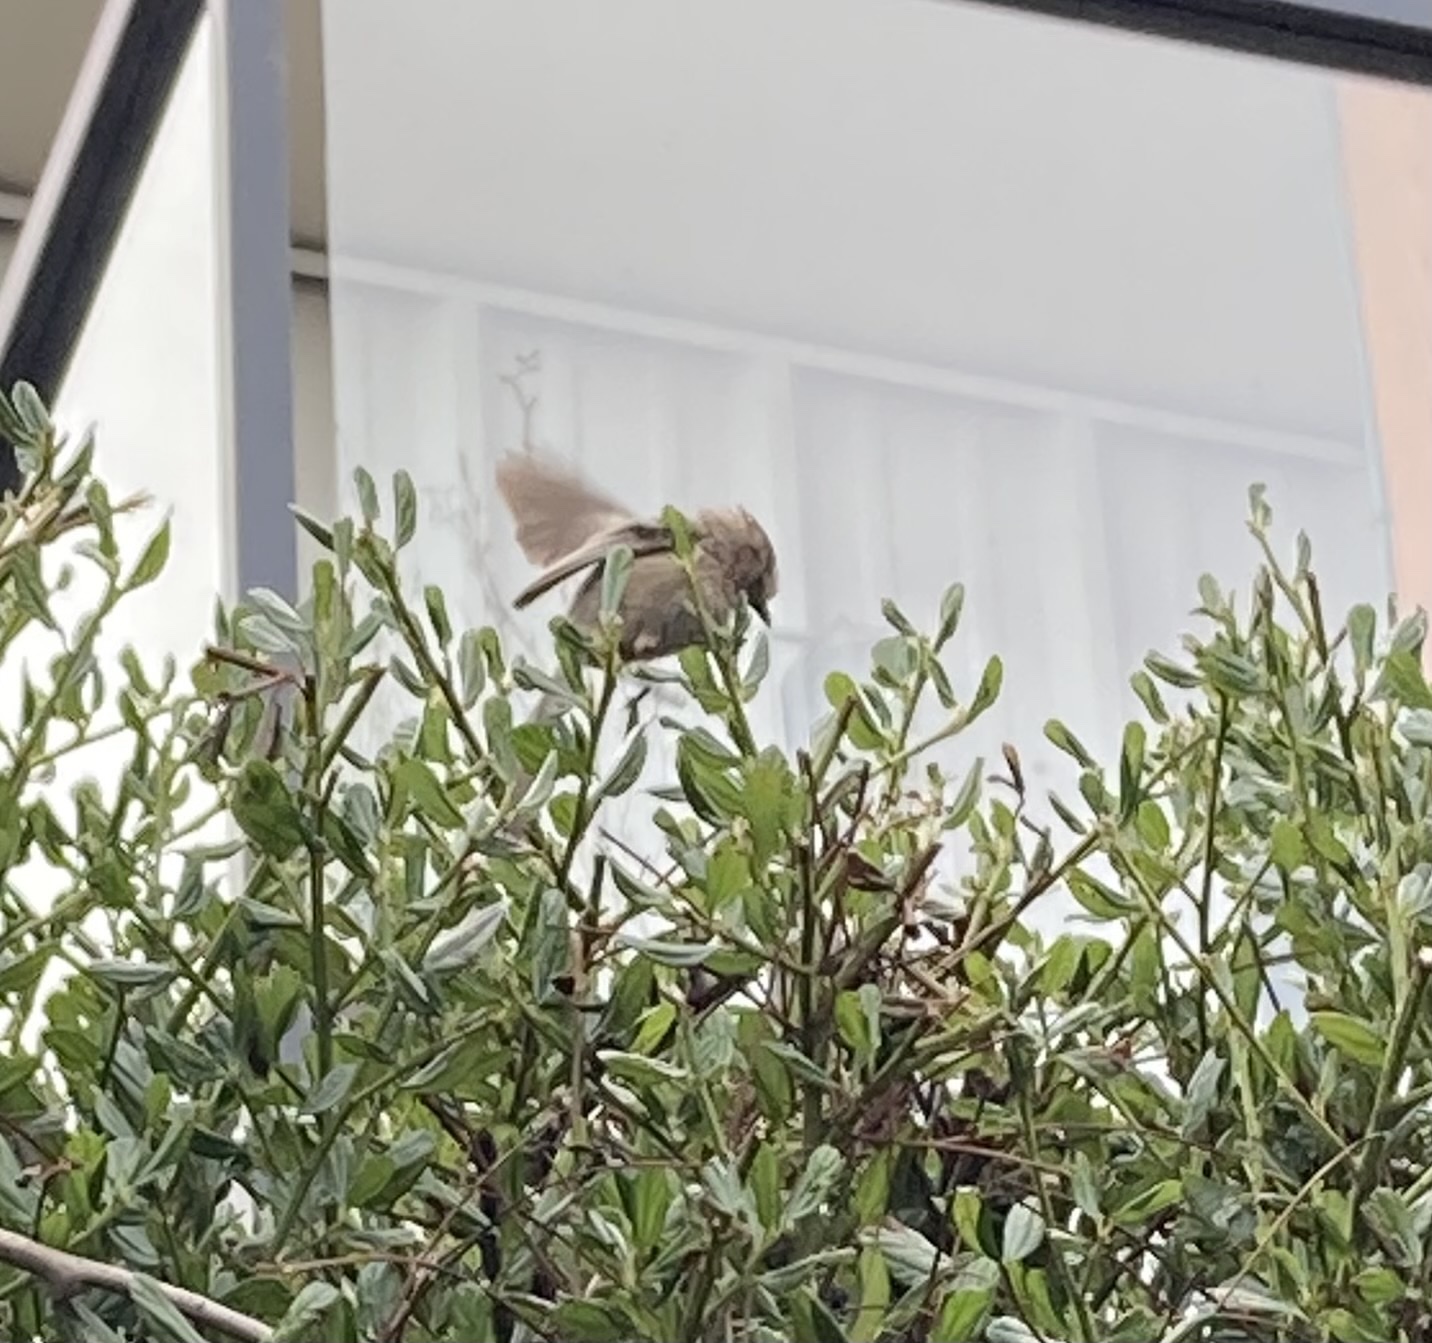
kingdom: Animalia
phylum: Chordata
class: Aves
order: Passeriformes
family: Aegithalidae
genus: Psaltriparus
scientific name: Psaltriparus minimus
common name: American bushtit
